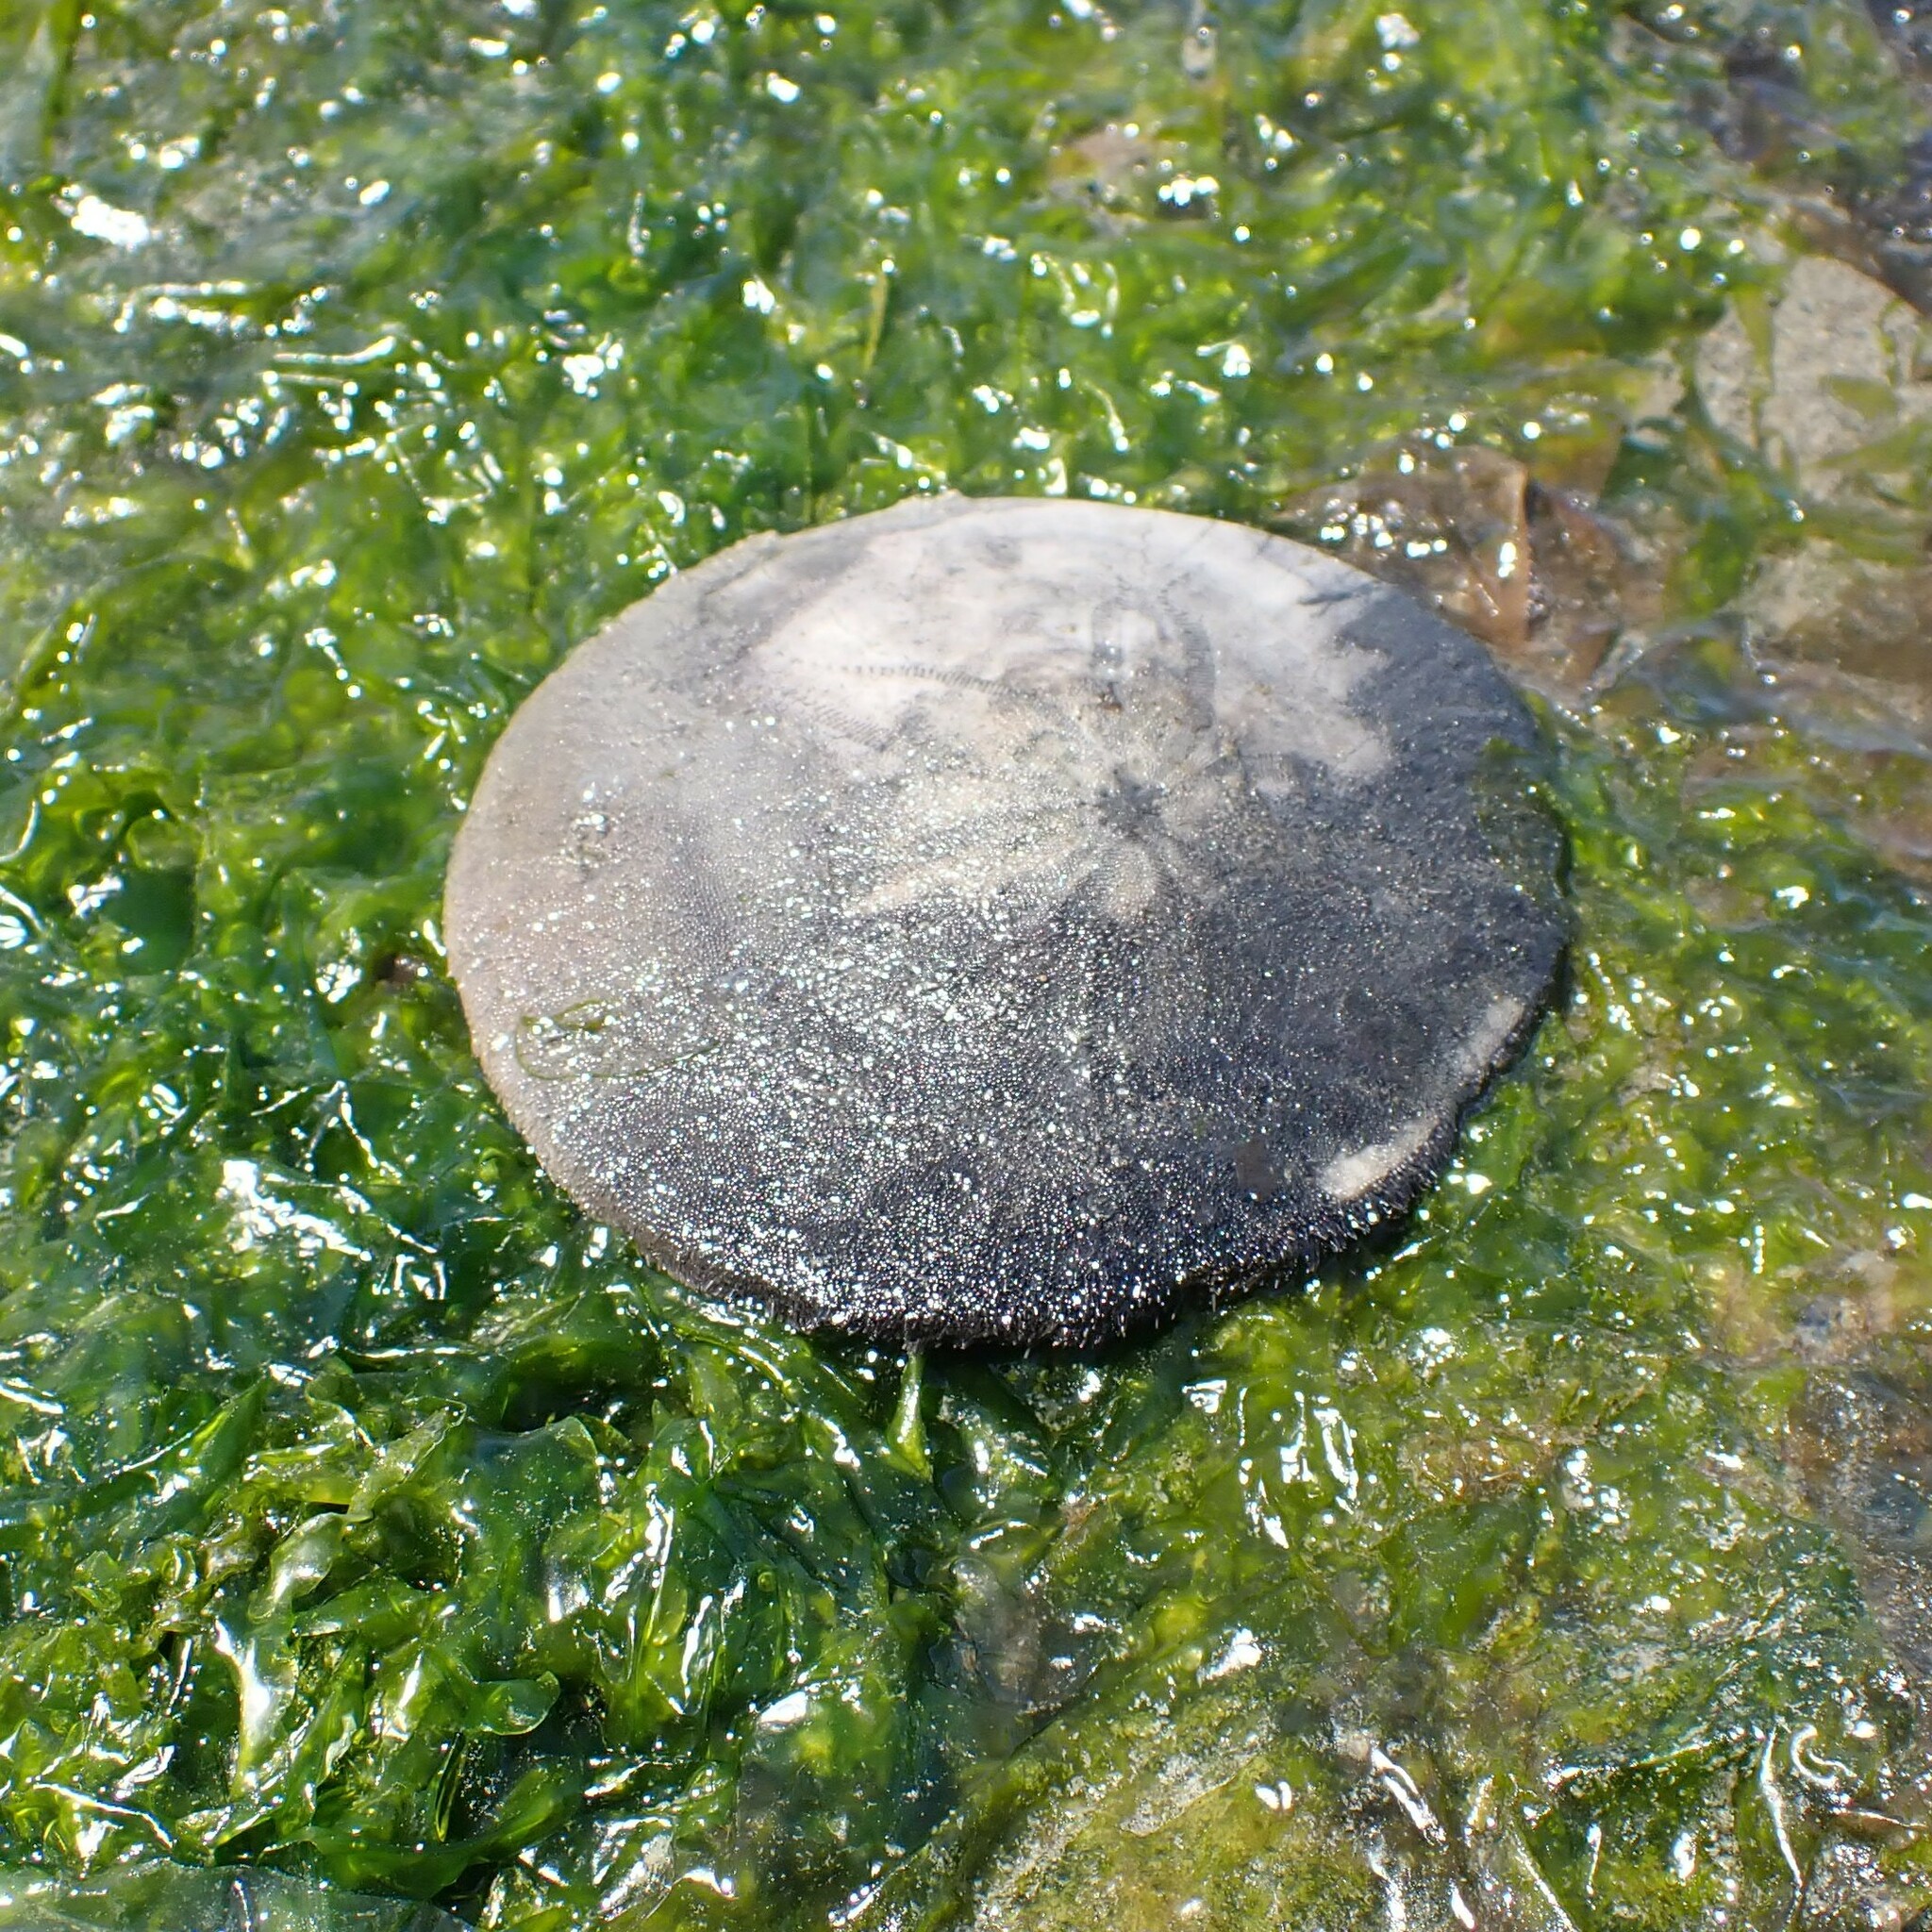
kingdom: Animalia
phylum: Echinodermata
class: Echinoidea
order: Echinolampadacea
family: Dendrasteridae
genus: Dendraster
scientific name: Dendraster excentricus
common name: Eccentric sand dollar sea urchin
